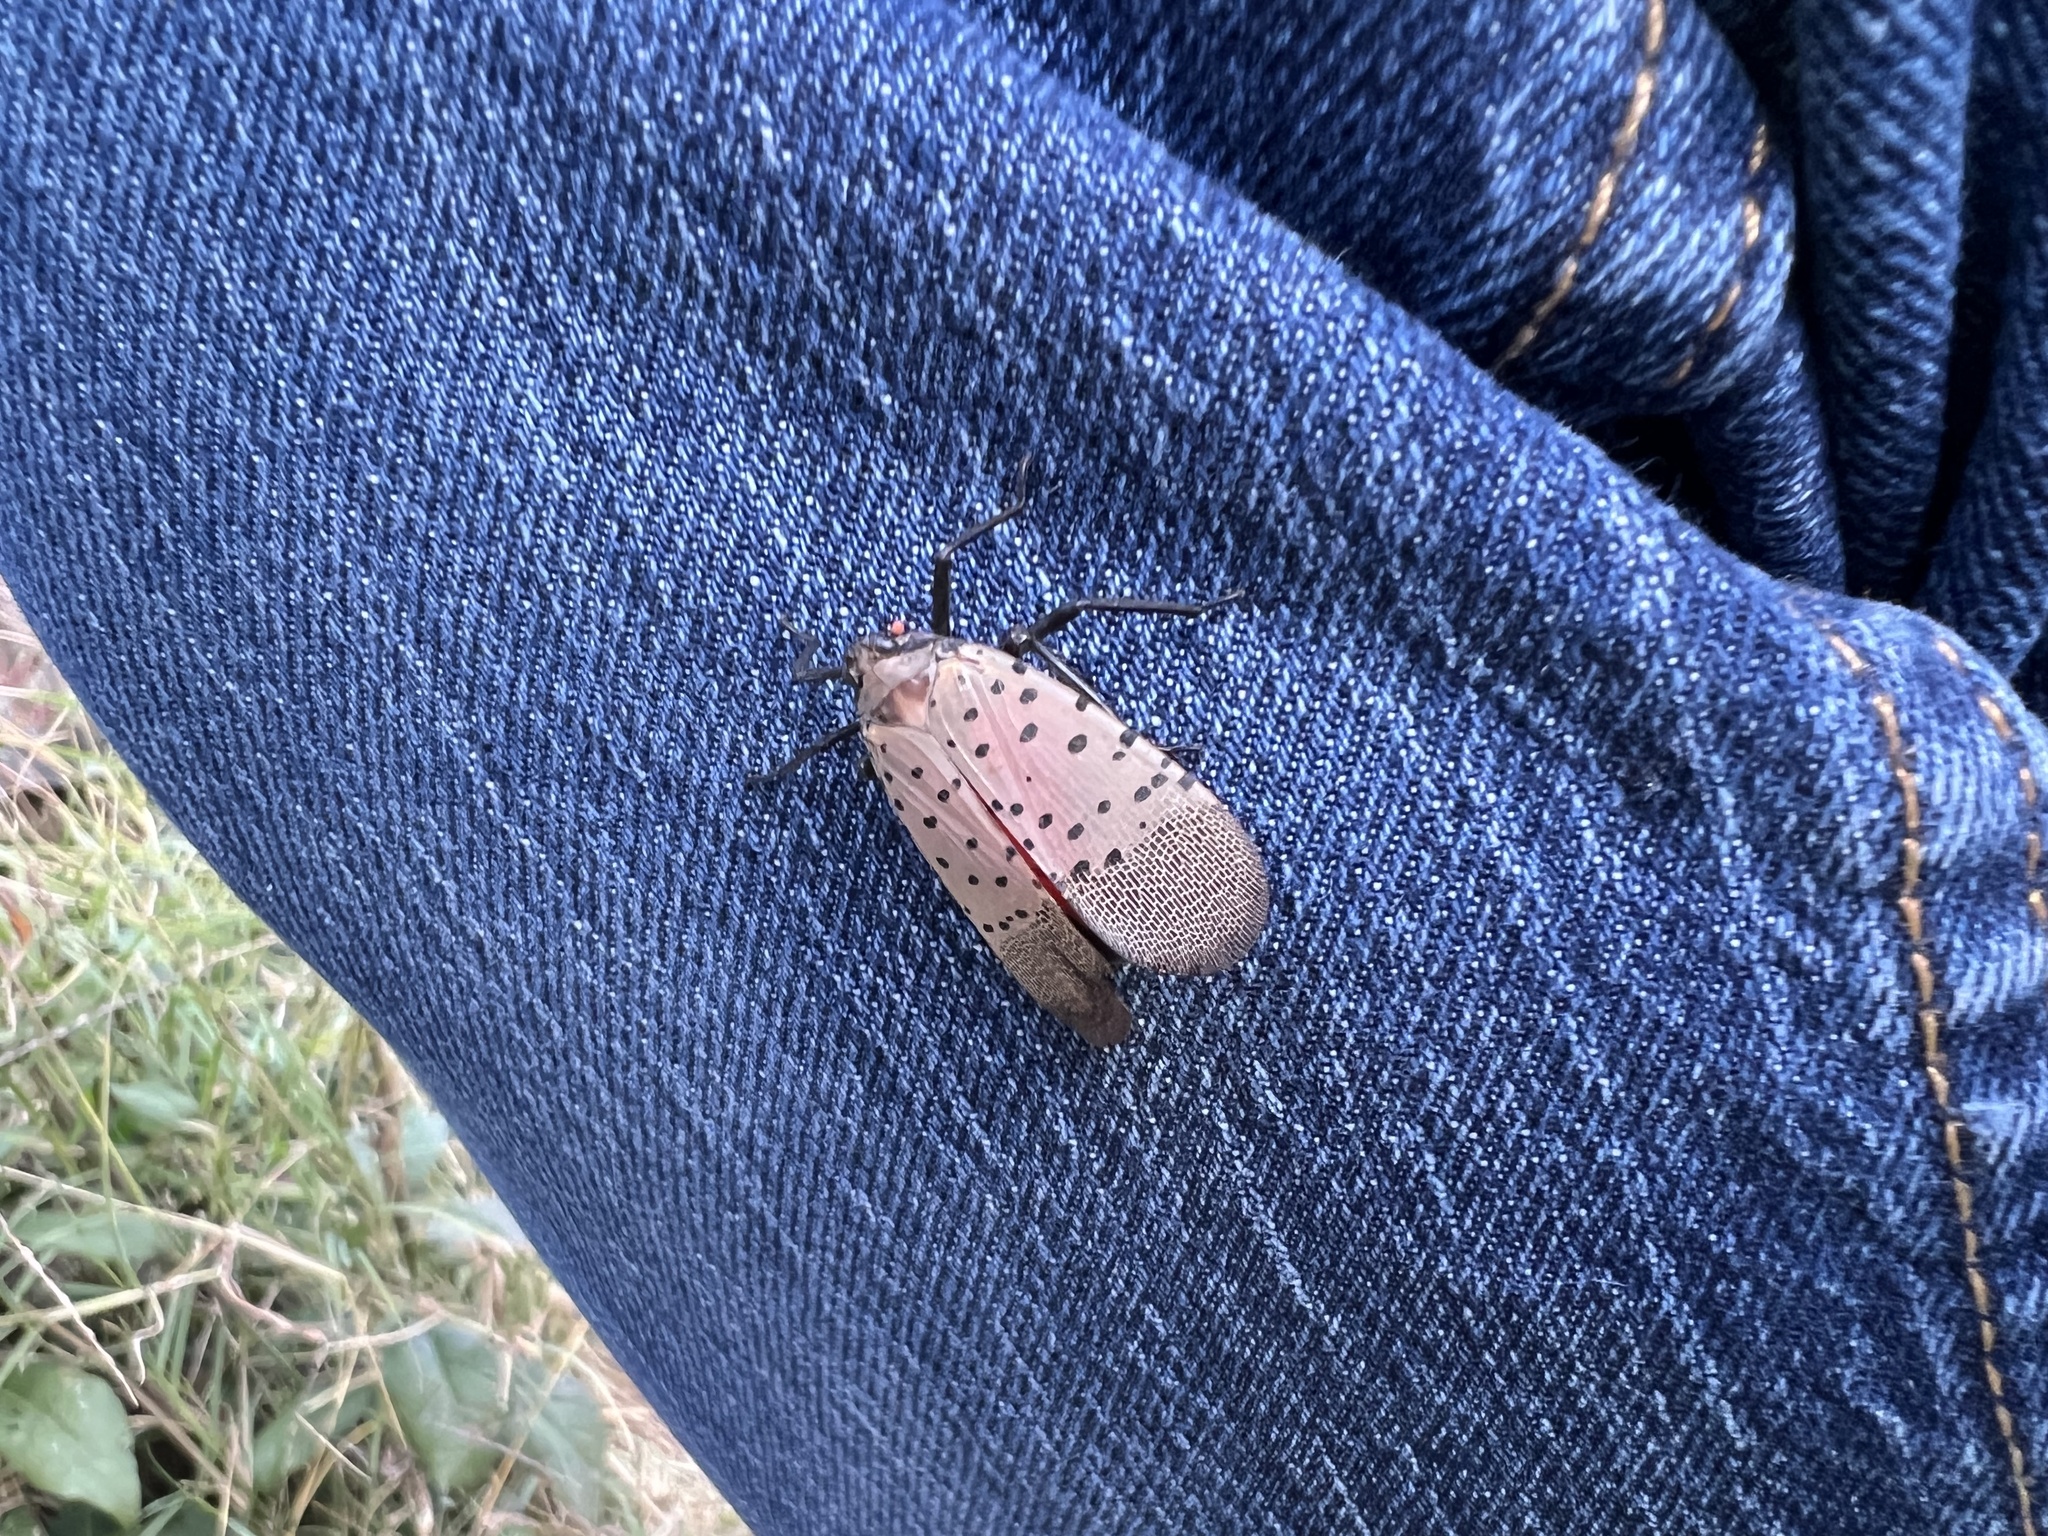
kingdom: Animalia
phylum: Arthropoda
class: Insecta
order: Hemiptera
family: Fulgoridae
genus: Lycorma
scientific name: Lycorma delicatula
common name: Spotted lanternfly
